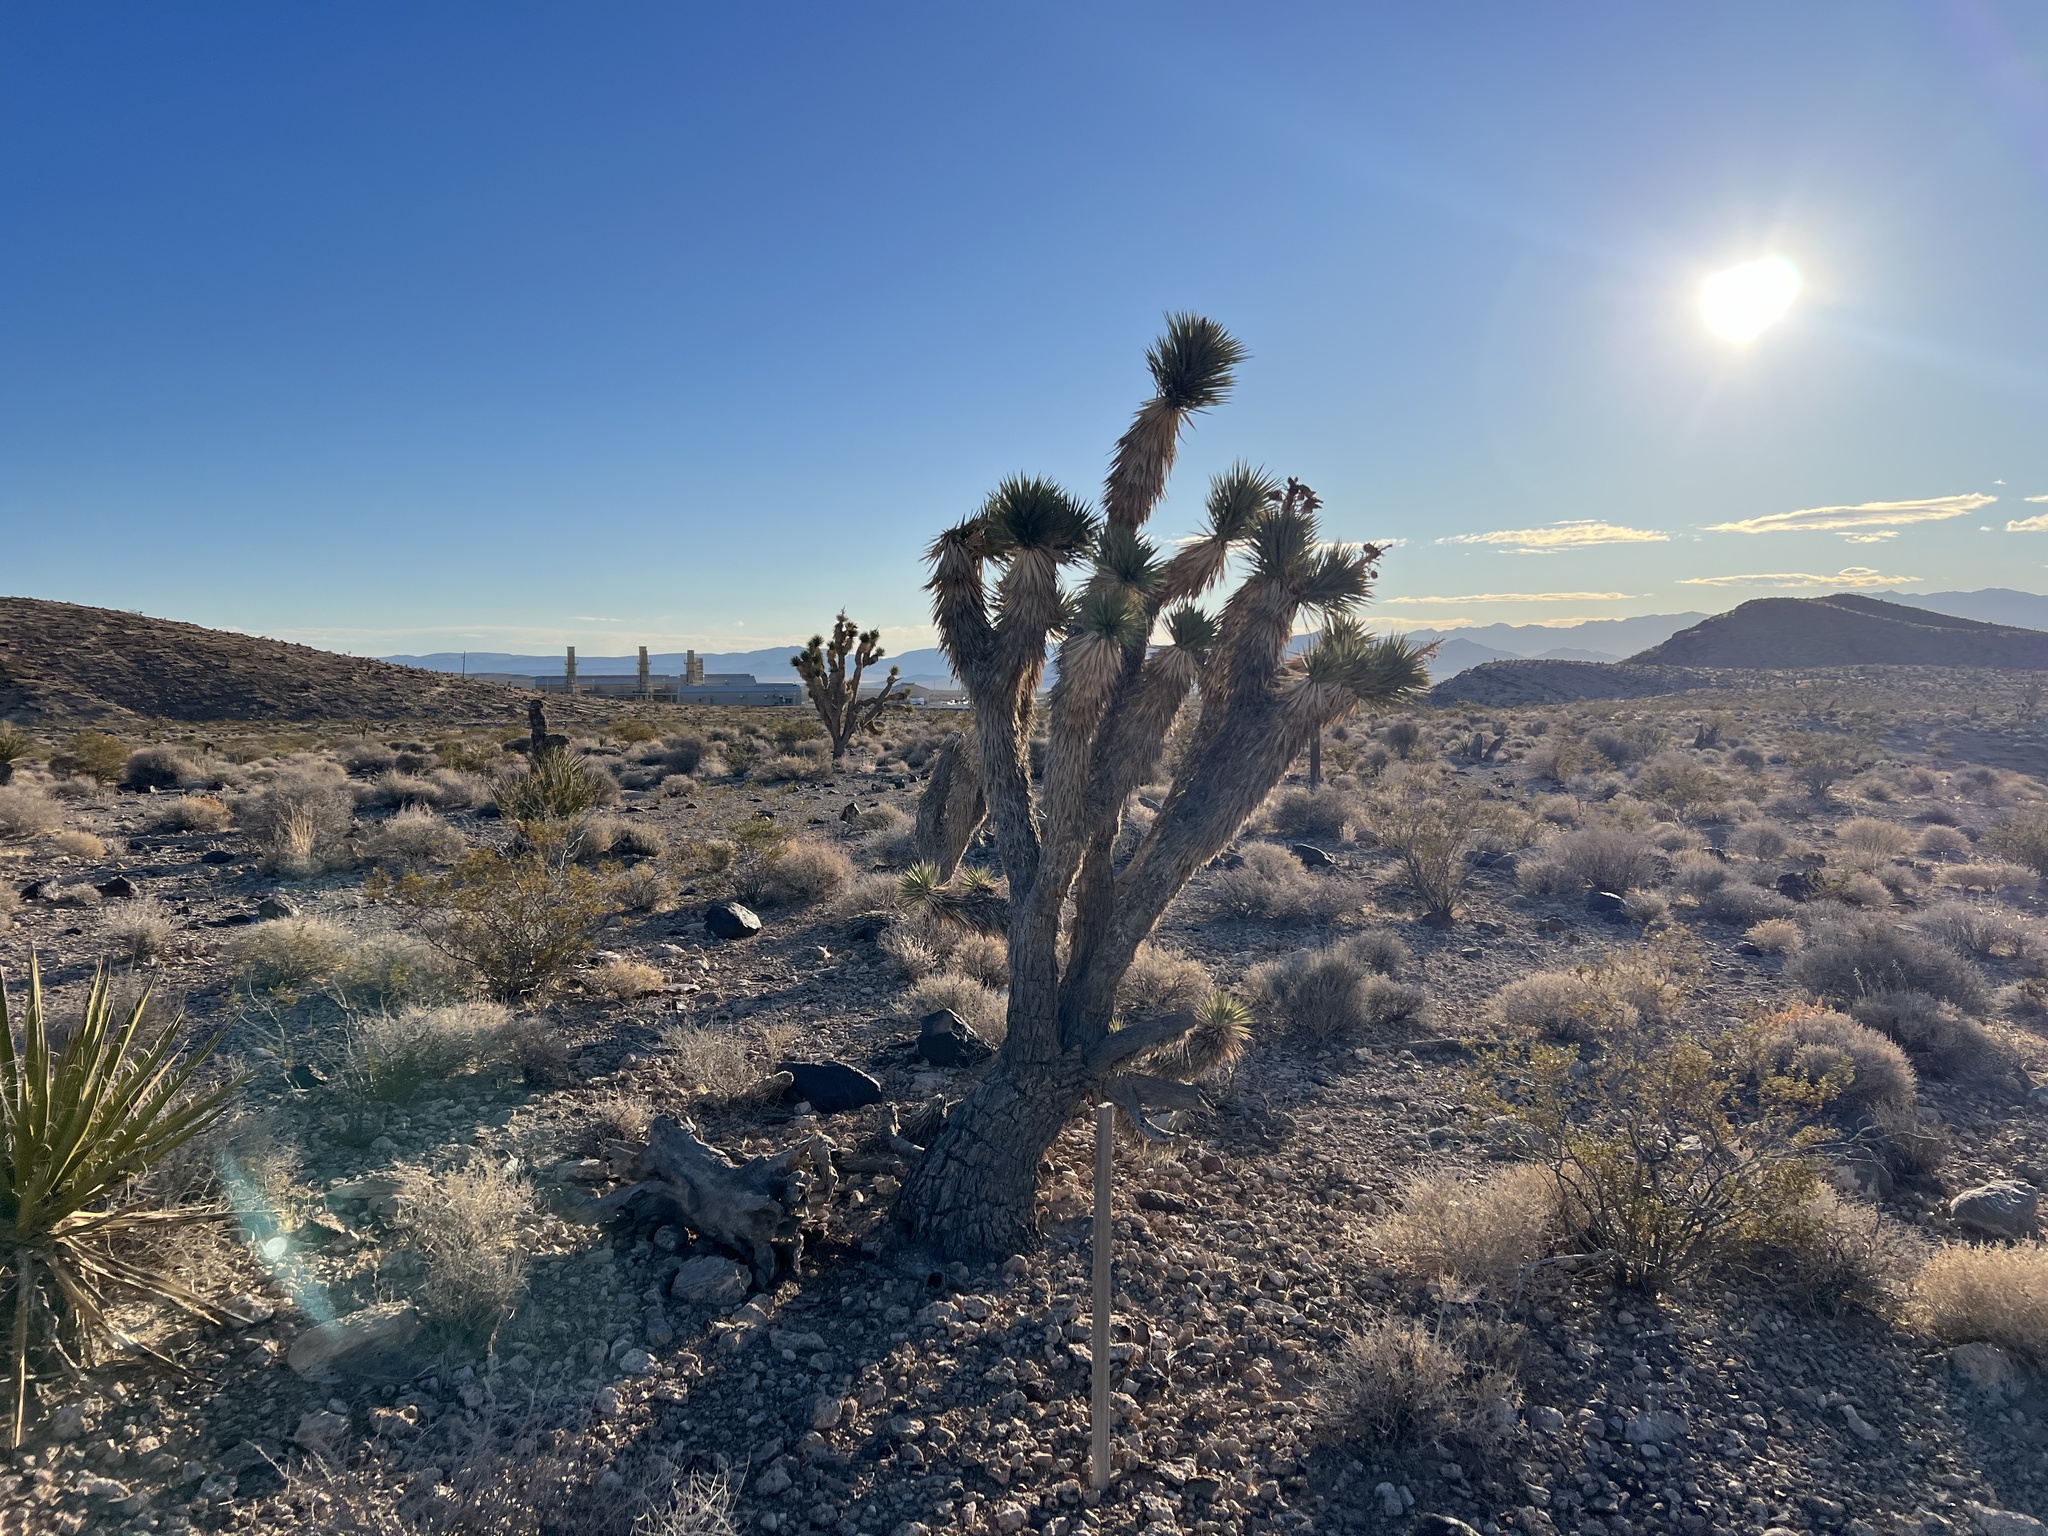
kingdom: Plantae
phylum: Tracheophyta
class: Liliopsida
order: Asparagales
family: Asparagaceae
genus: Yucca
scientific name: Yucca brevifolia
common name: Joshua tree
